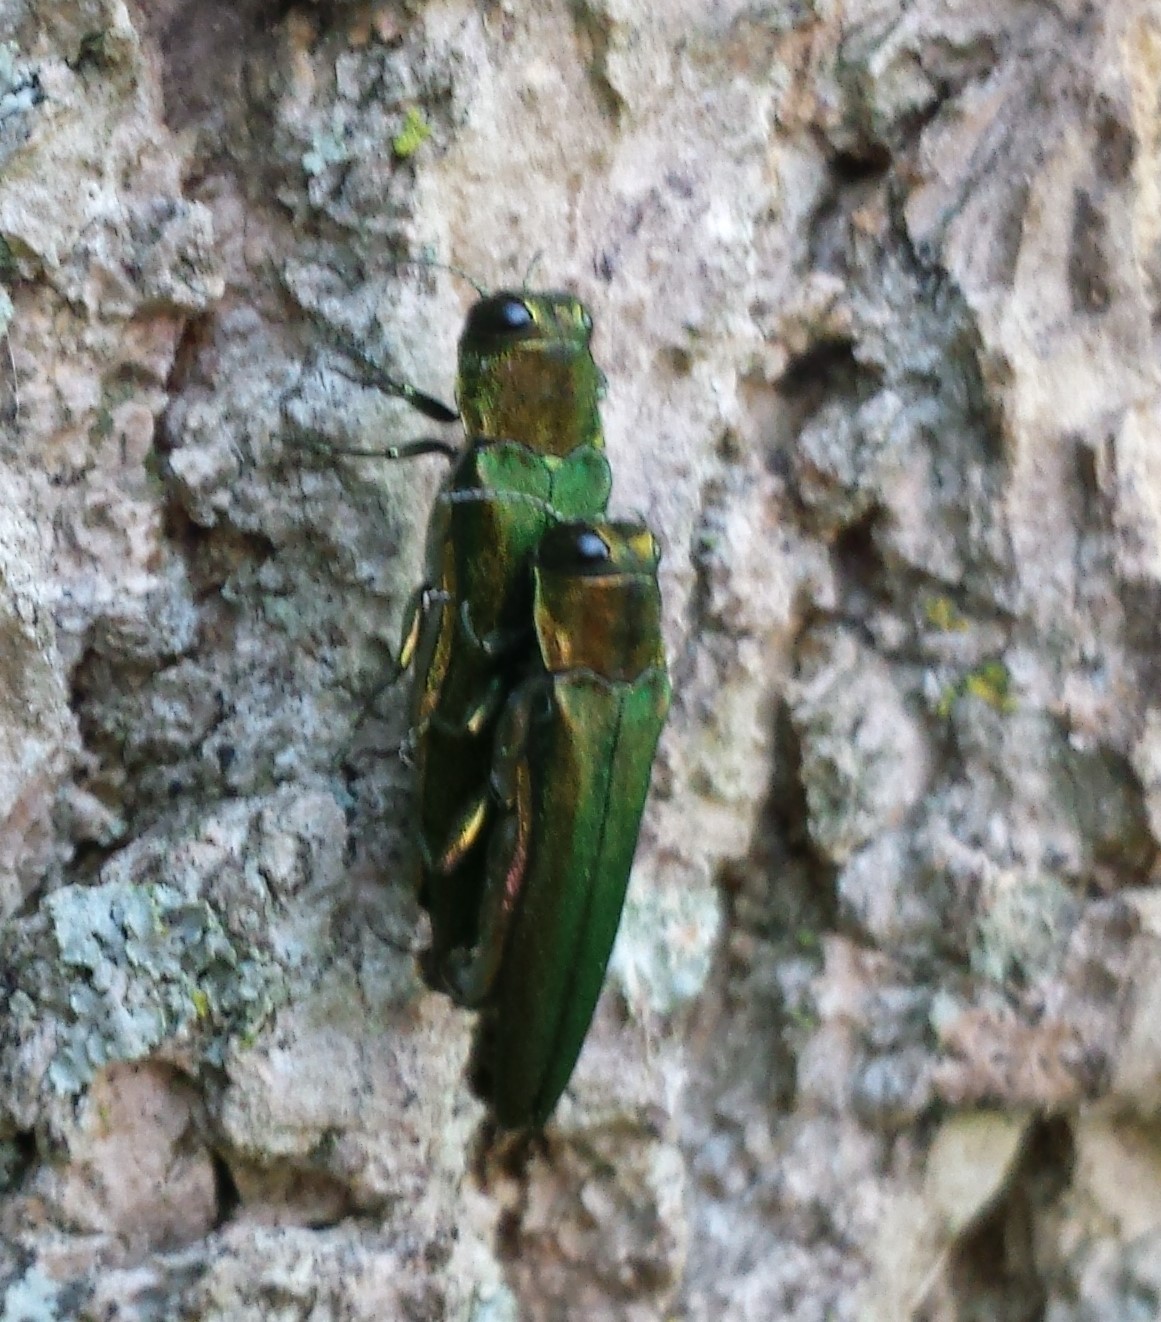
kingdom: Animalia
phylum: Arthropoda
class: Insecta
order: Coleoptera
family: Buprestidae
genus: Agrilus
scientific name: Agrilus planipennis
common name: Emerald ash borer
